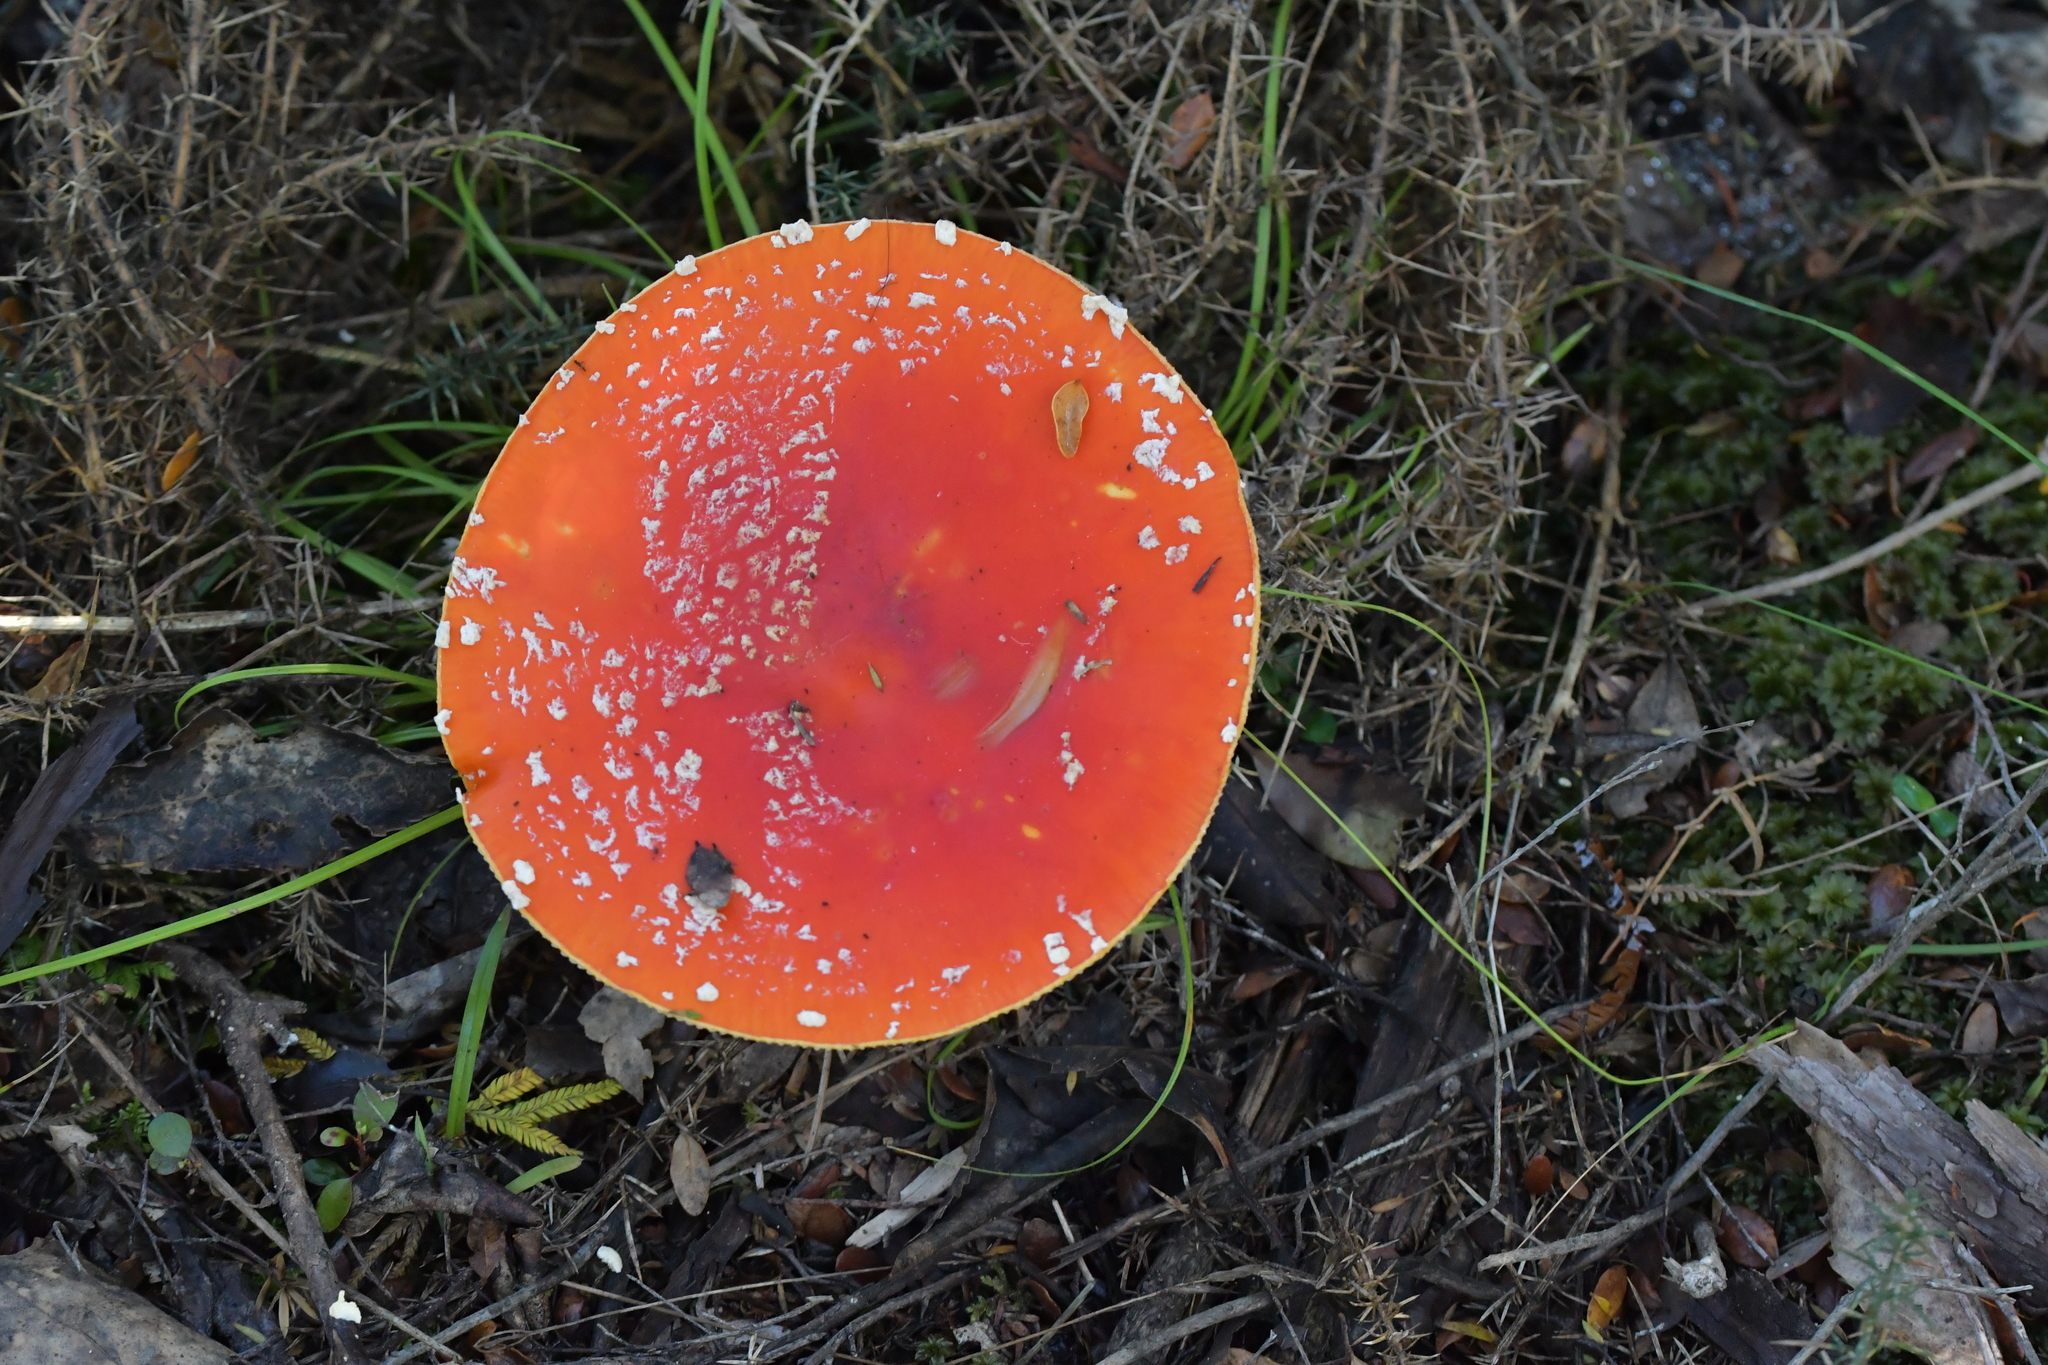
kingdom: Fungi
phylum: Basidiomycota
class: Agaricomycetes
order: Agaricales
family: Amanitaceae
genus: Amanita
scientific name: Amanita muscaria
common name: Fly agaric
